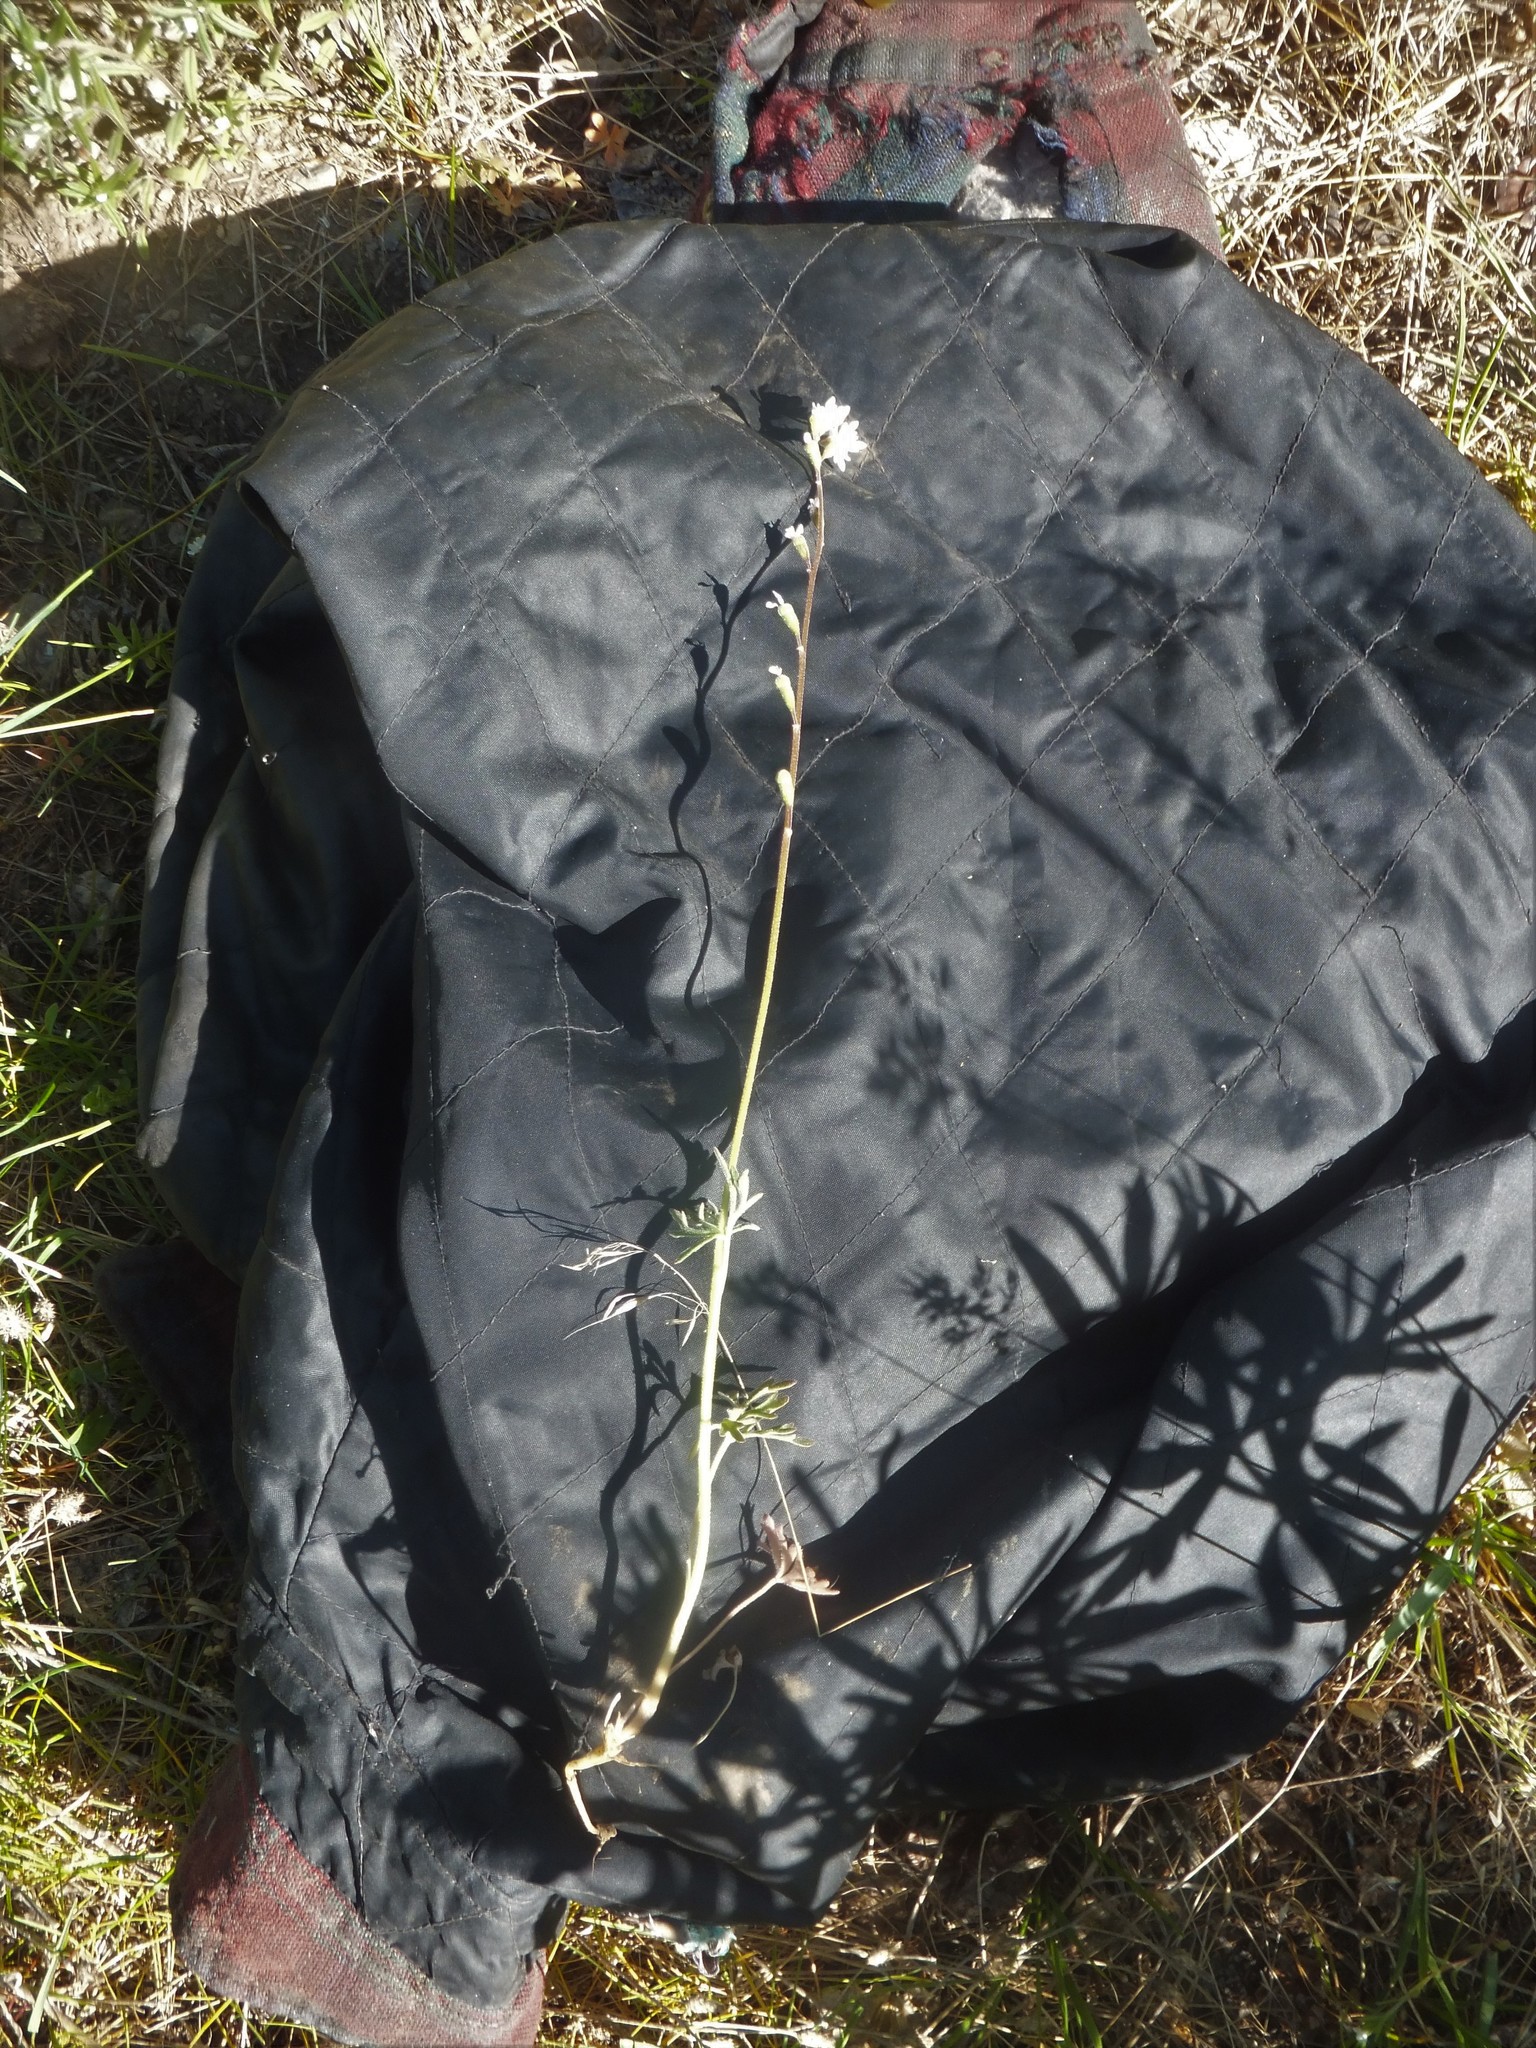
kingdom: Plantae
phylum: Tracheophyta
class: Magnoliopsida
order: Saxifragales
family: Saxifragaceae
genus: Lithophragma
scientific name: Lithophragma parviflorum
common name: Small-flowered fringe-cup
